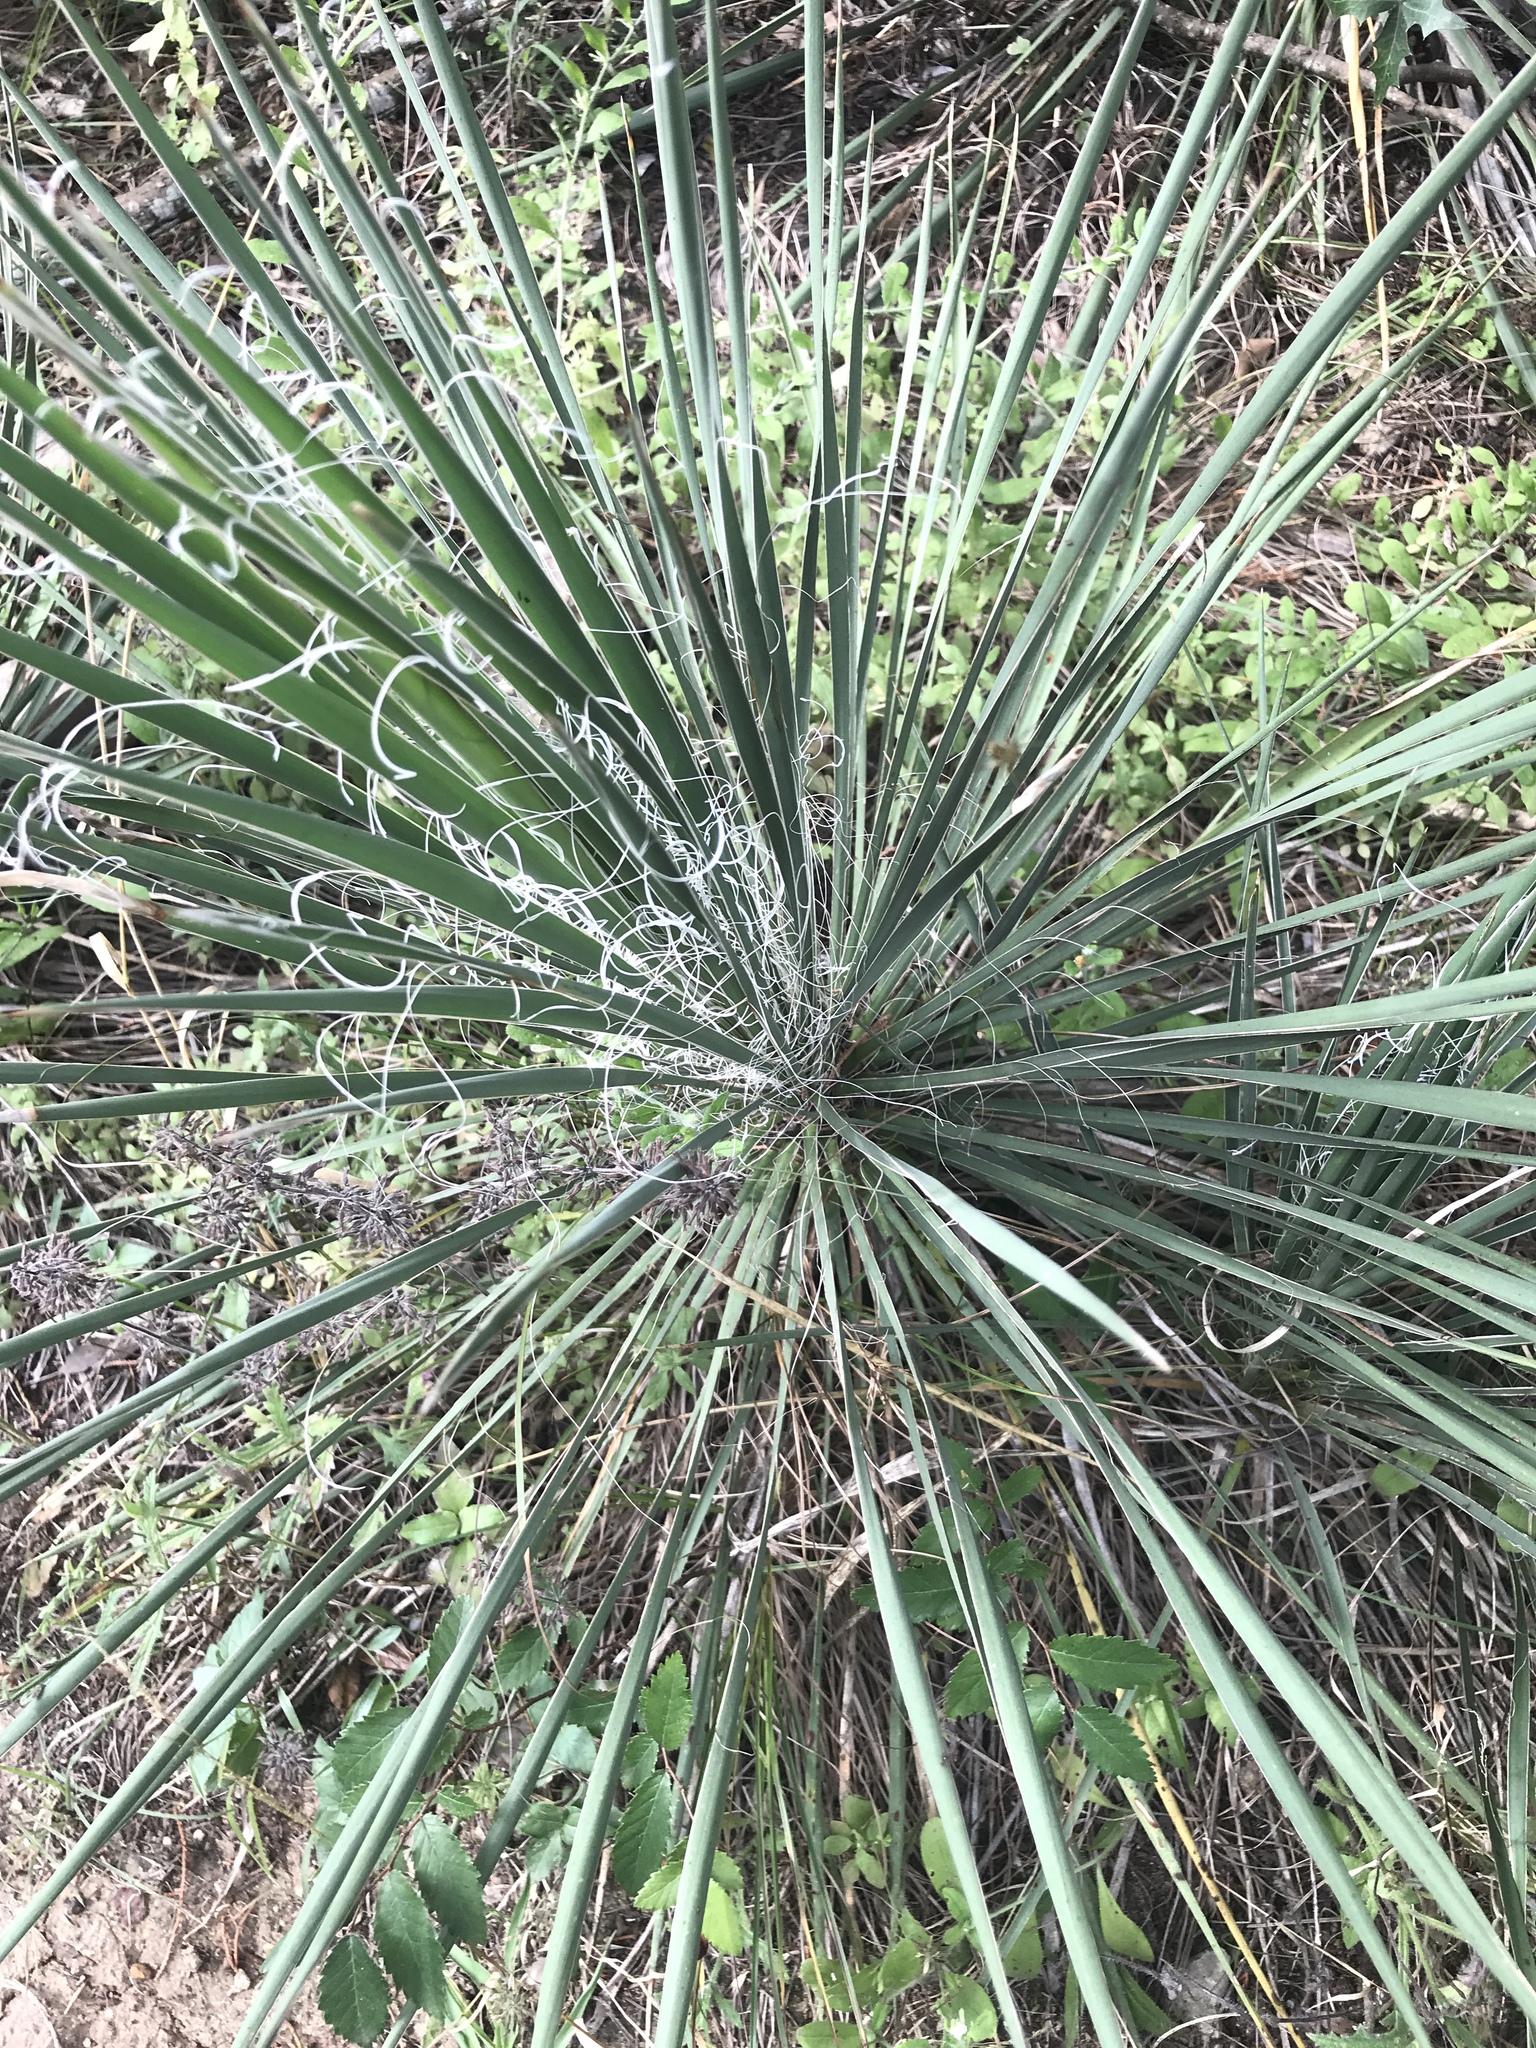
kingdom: Plantae
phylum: Tracheophyta
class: Liliopsida
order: Asparagales
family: Asparagaceae
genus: Yucca
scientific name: Yucca constricta
